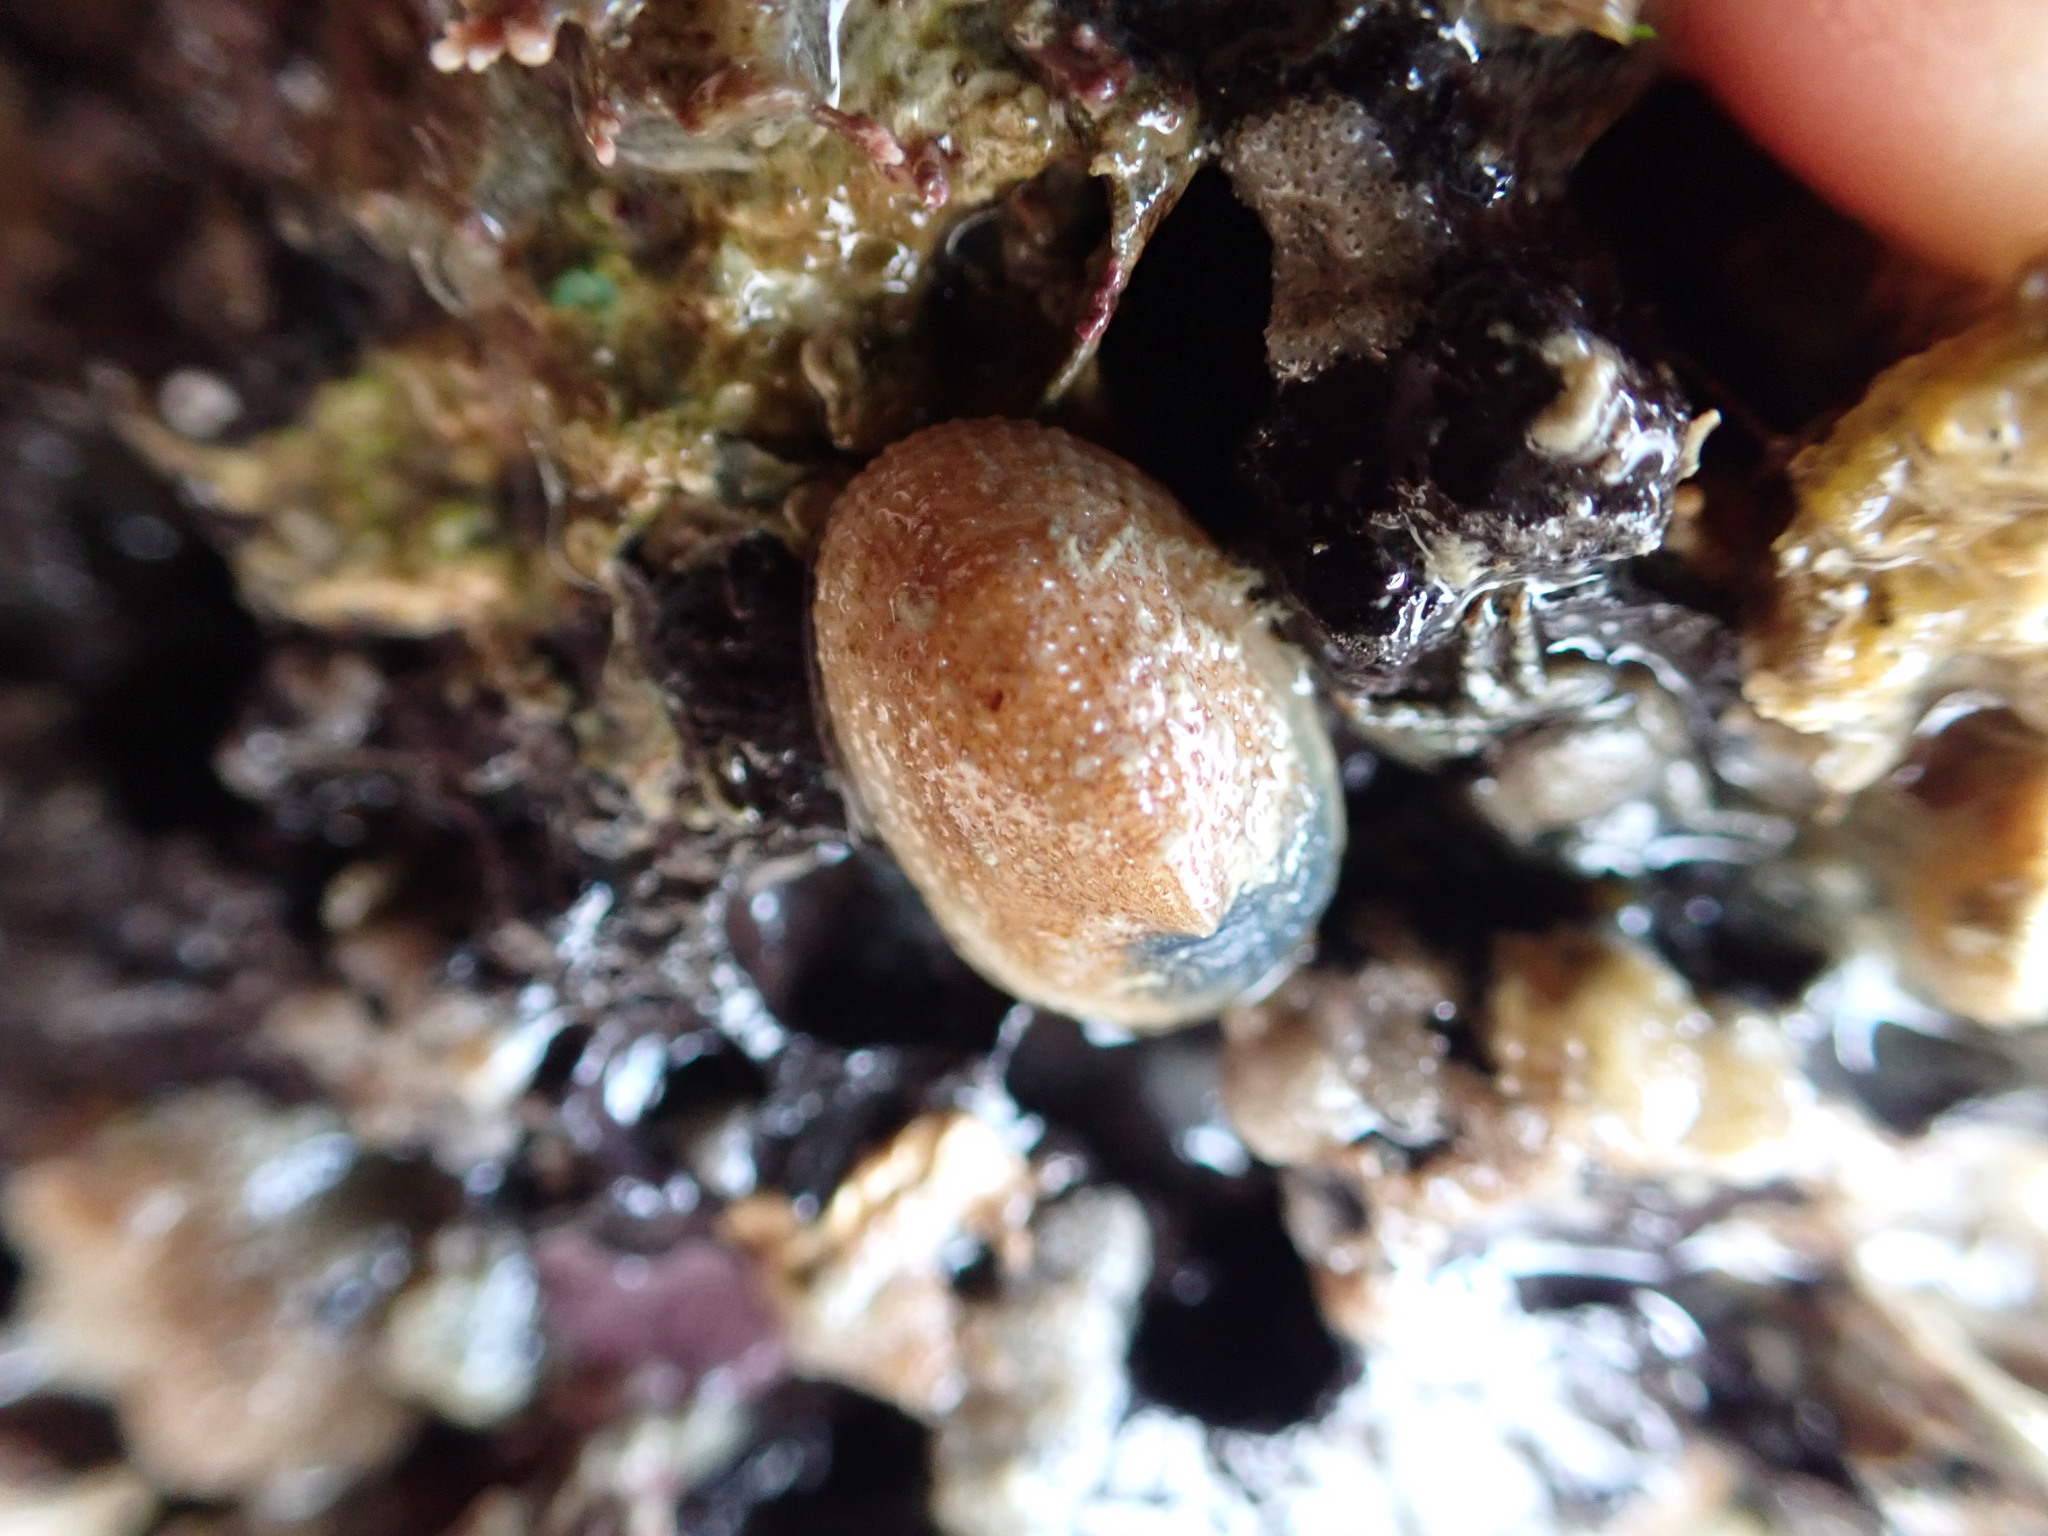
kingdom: Animalia
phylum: Mollusca
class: Gastropoda
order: Lepetellida
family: Fissurellidae
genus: Tugali
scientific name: Tugali suteri
